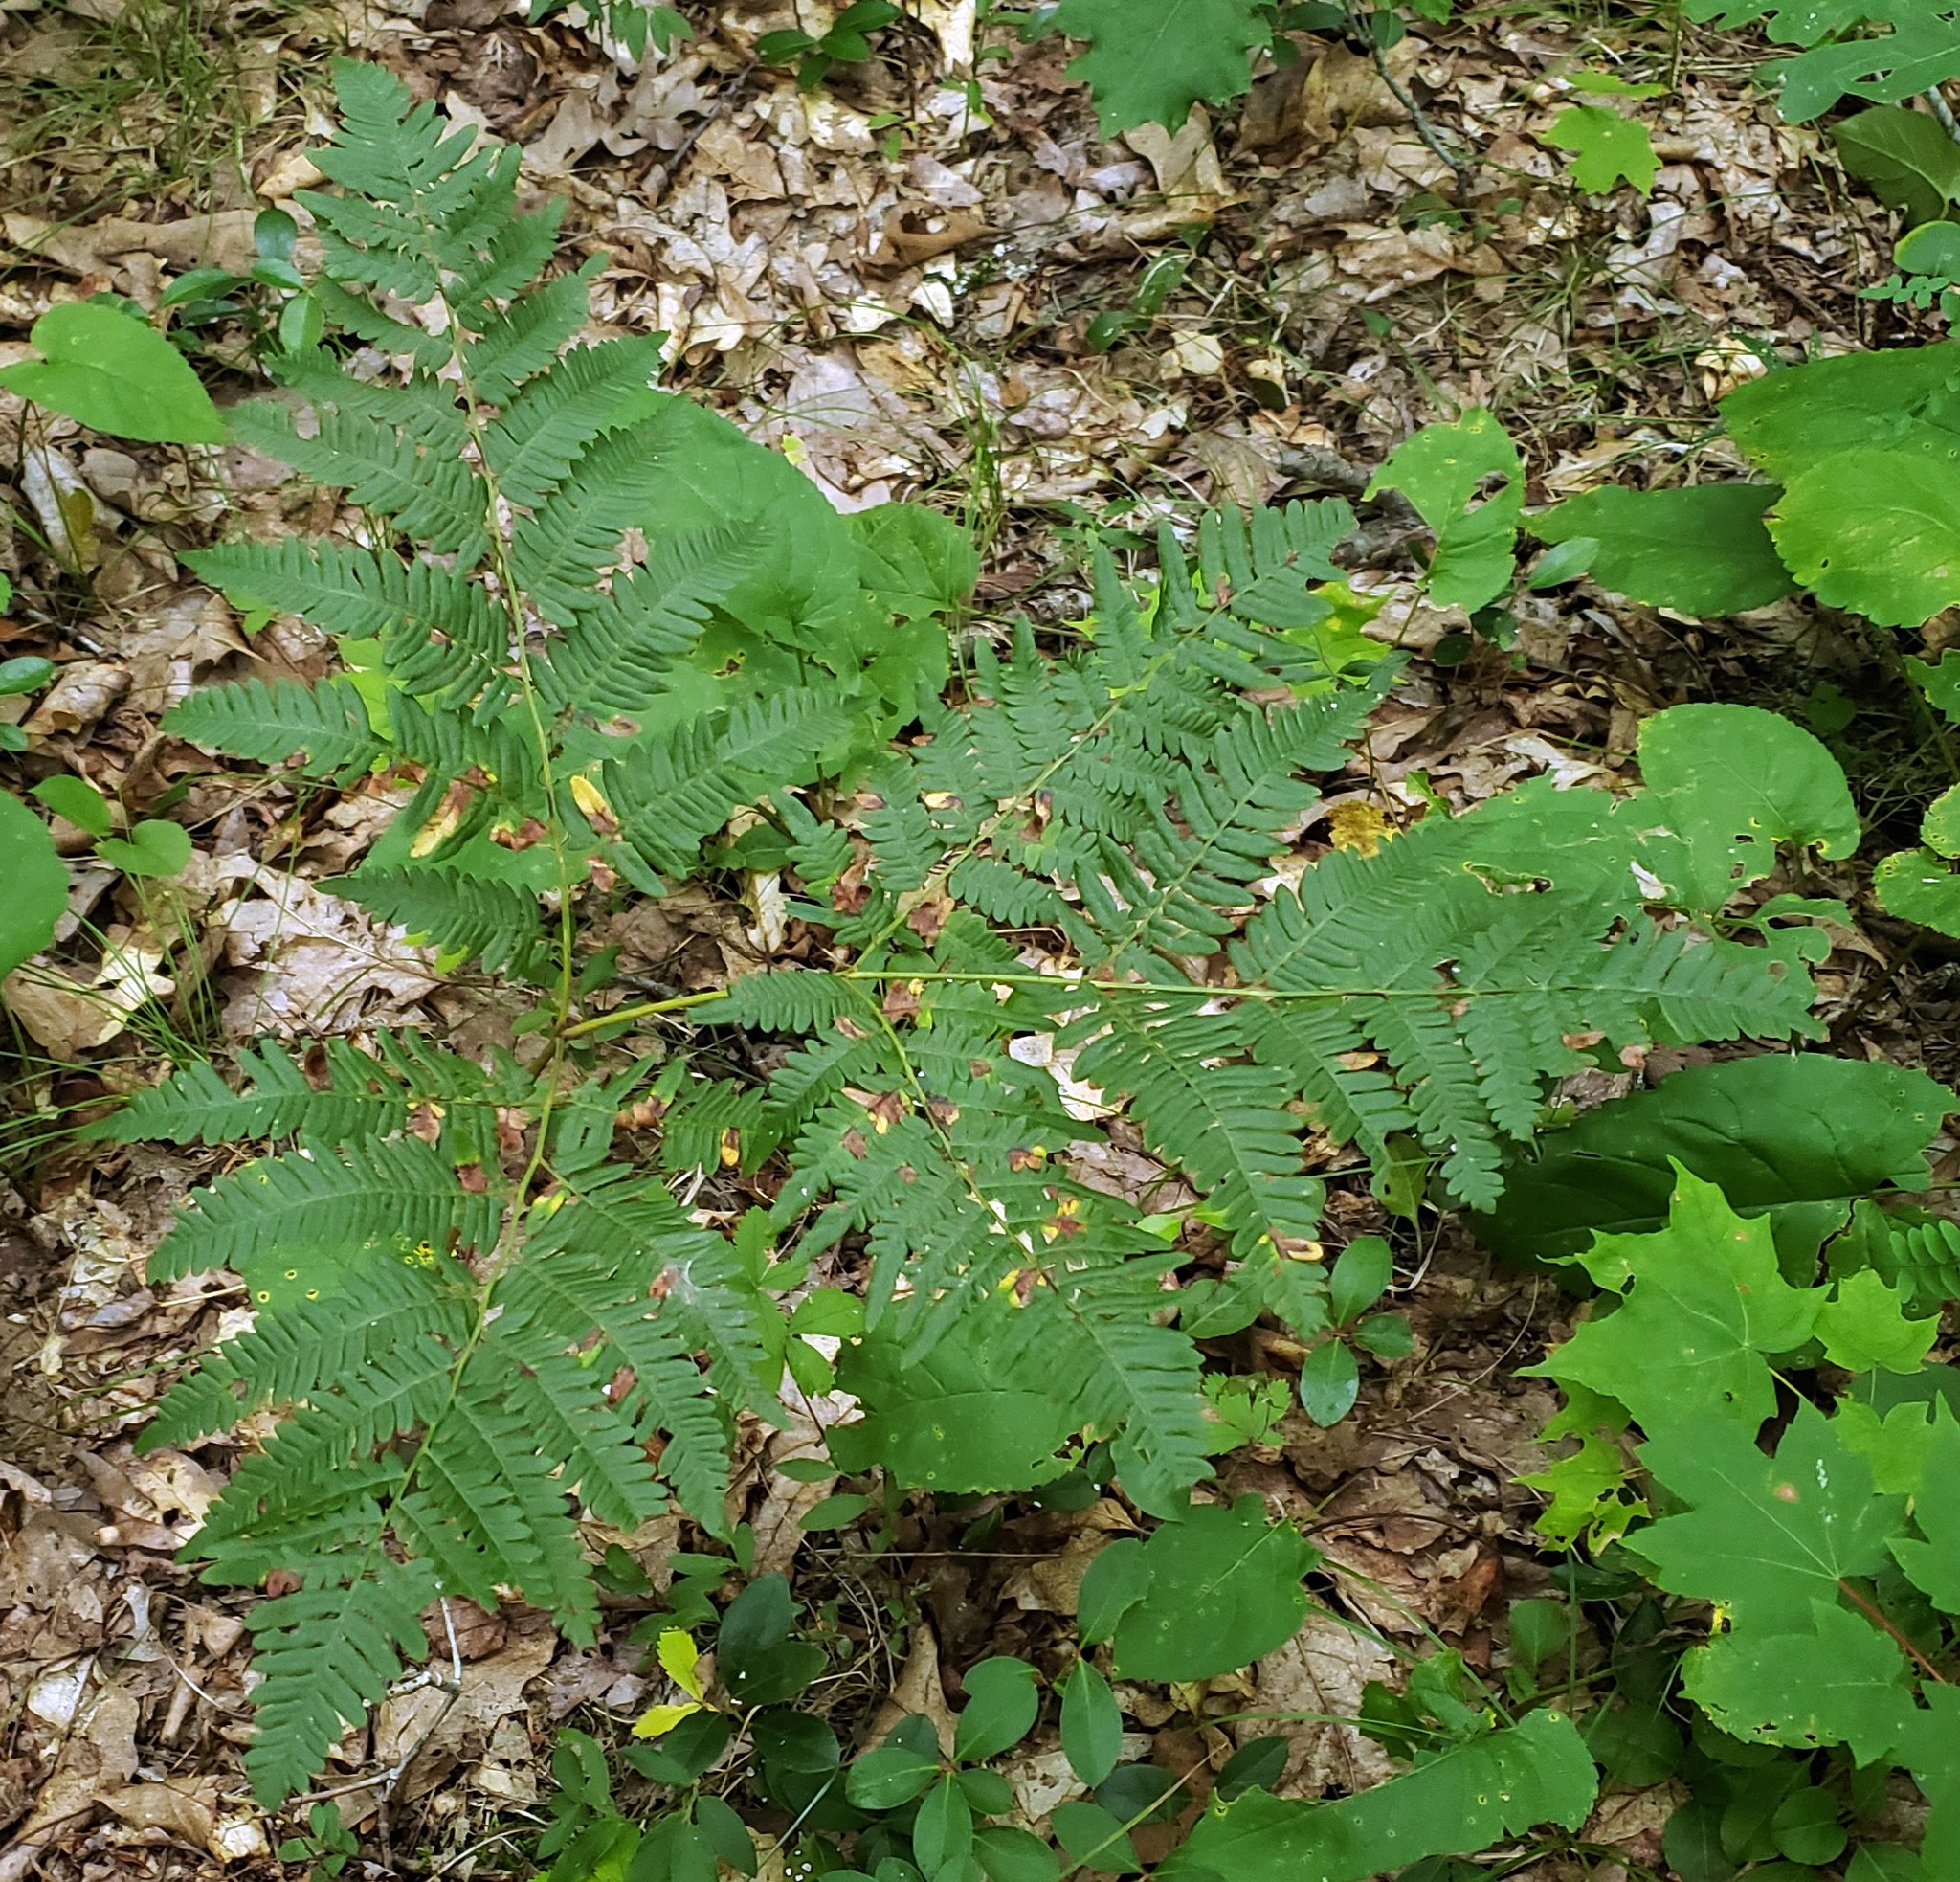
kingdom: Plantae
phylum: Tracheophyta
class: Polypodiopsida
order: Polypodiales
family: Dennstaedtiaceae
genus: Pteridium
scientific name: Pteridium aquilinum
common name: Bracken
